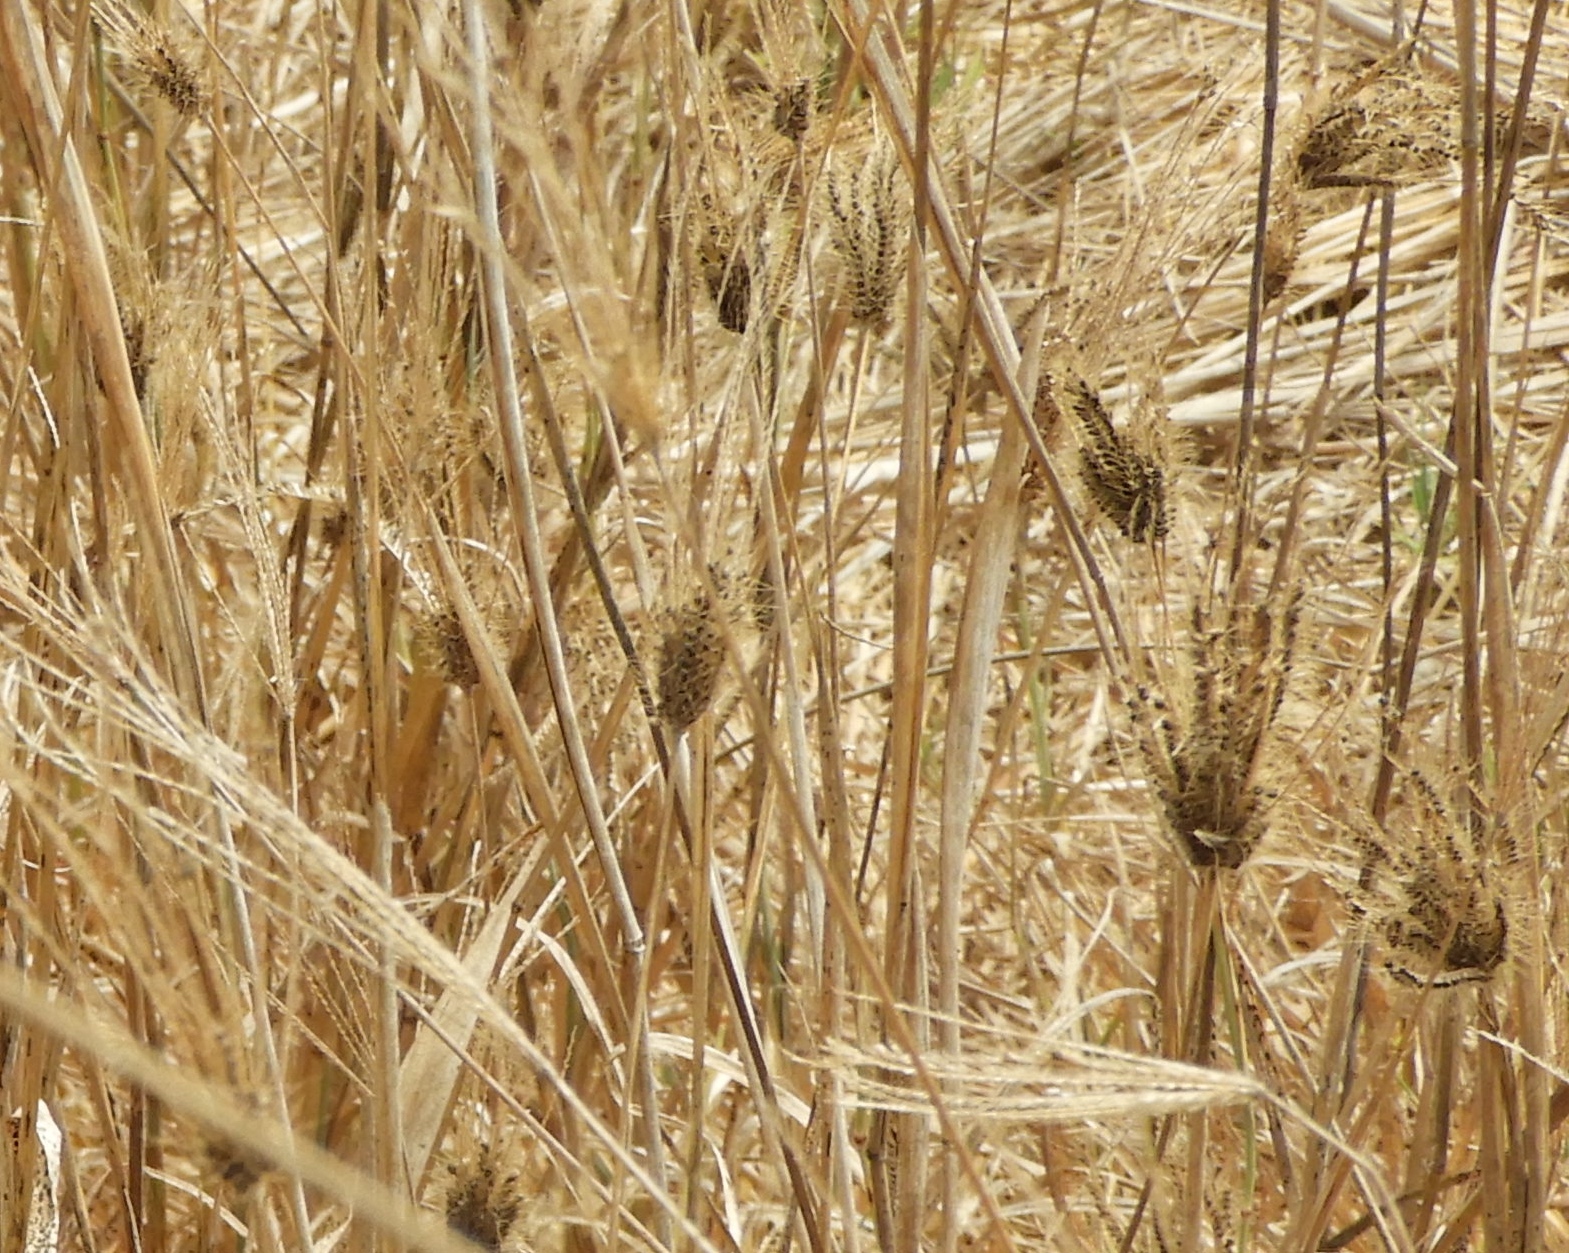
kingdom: Plantae
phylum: Tracheophyta
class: Liliopsida
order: Poales
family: Poaceae
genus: Chloris
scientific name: Chloris virgata
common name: Feathery rhodes-grass
